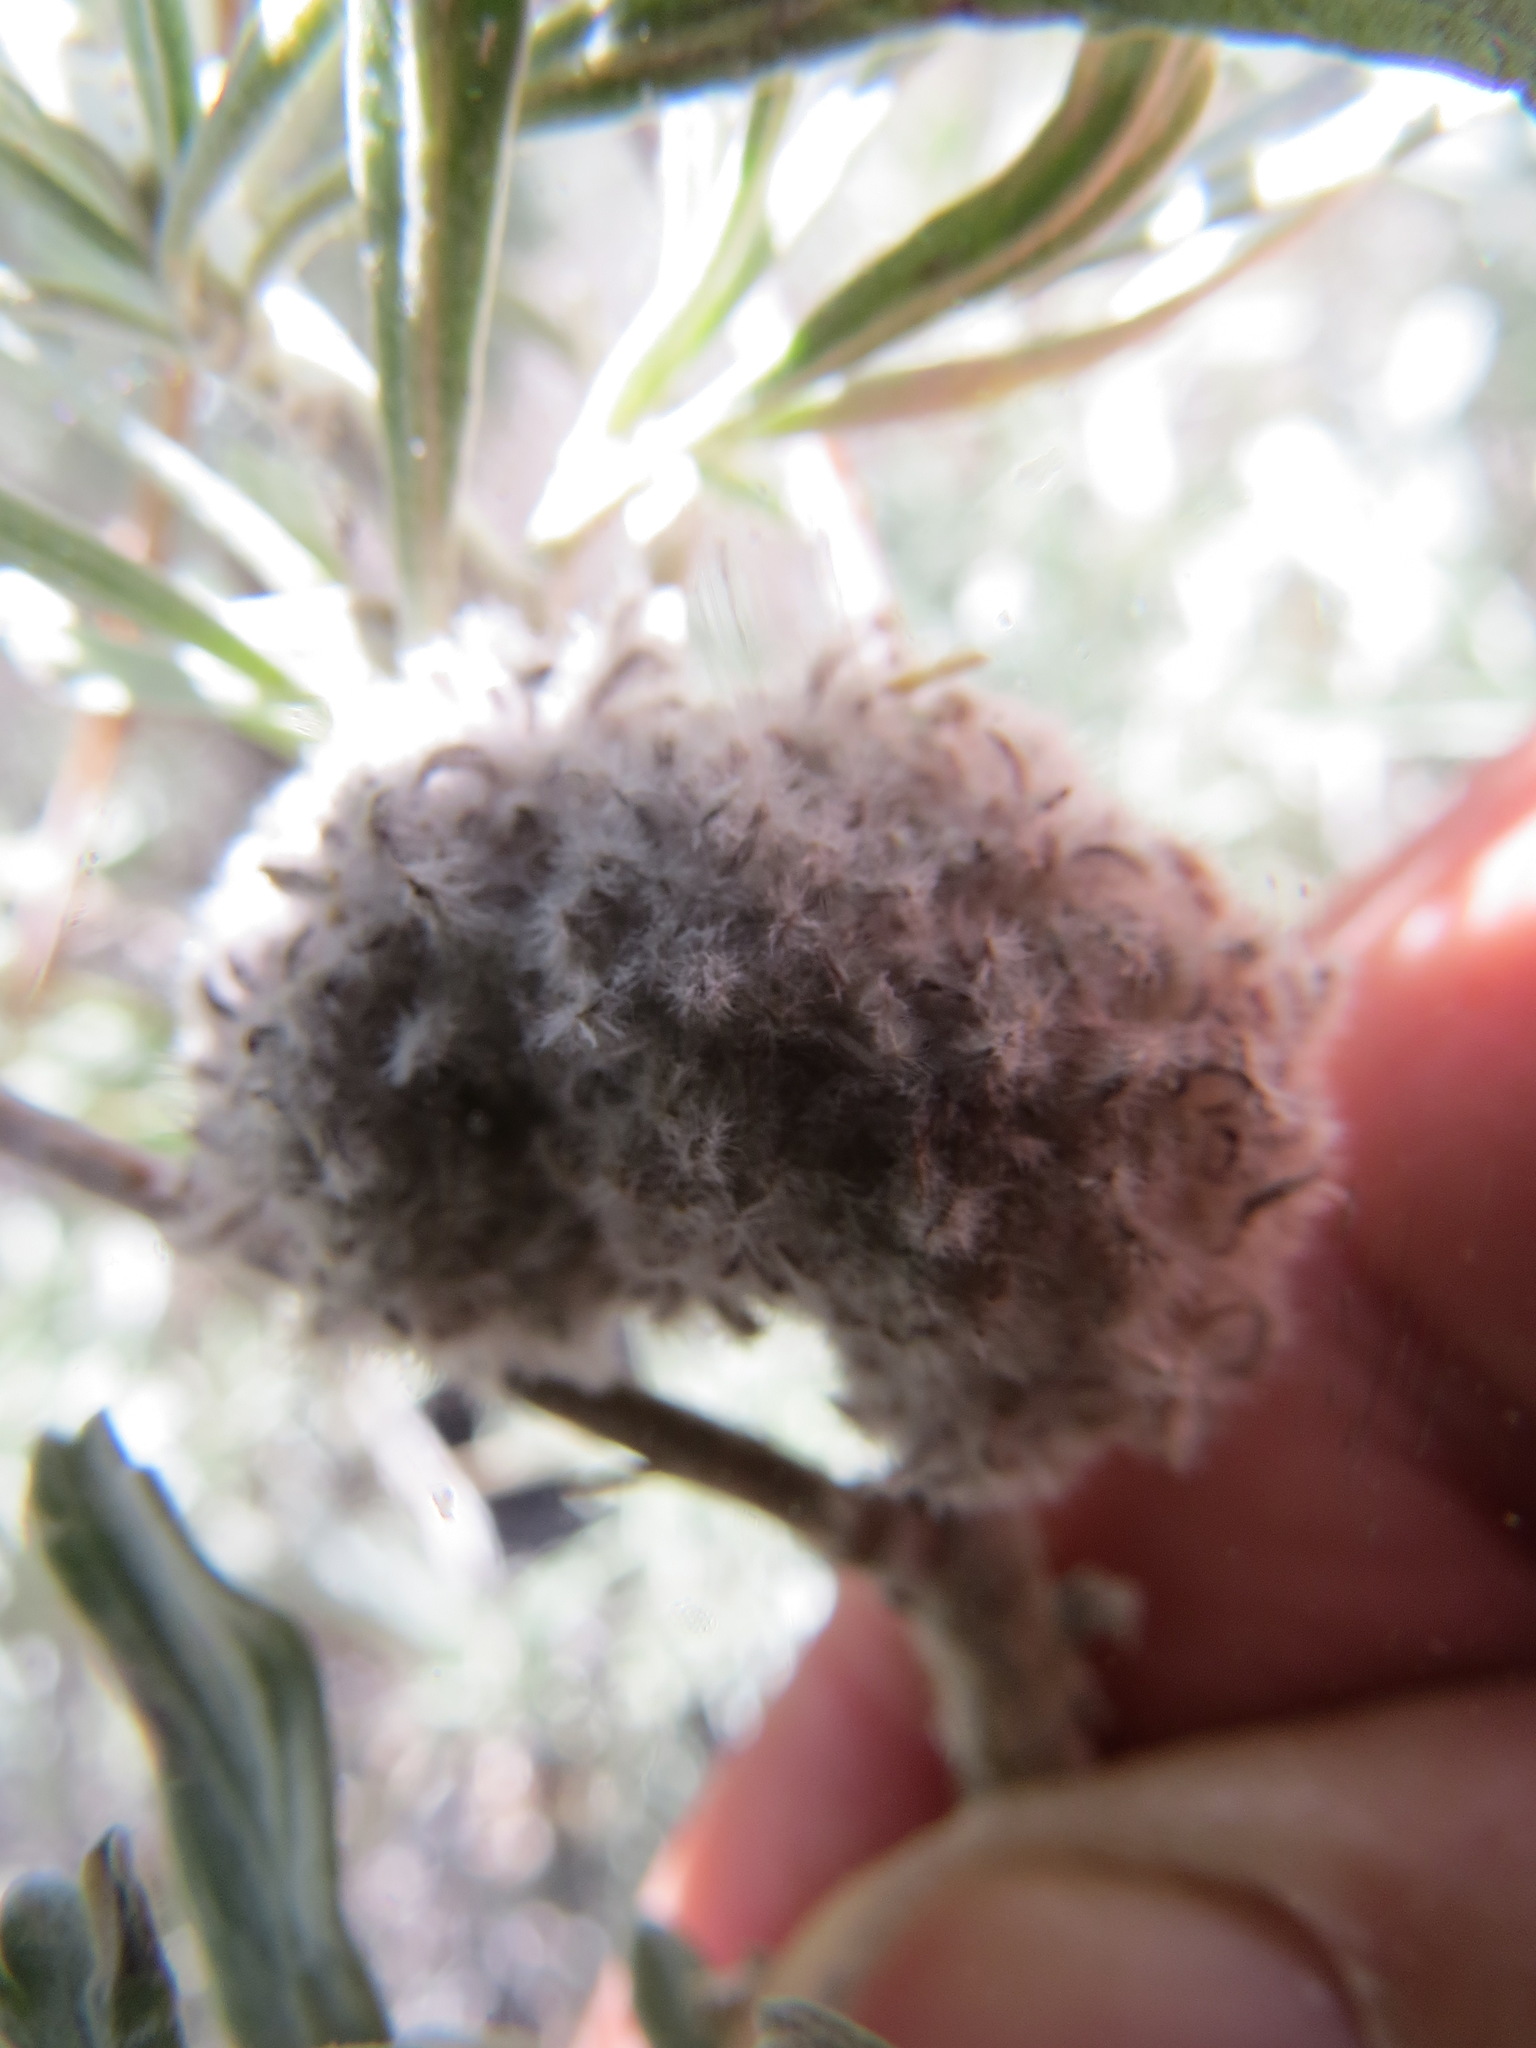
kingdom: Animalia
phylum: Arthropoda
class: Insecta
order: Diptera
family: Cecidomyiidae
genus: Rhopalomyia
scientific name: Rhopalomyia medusirrasa
